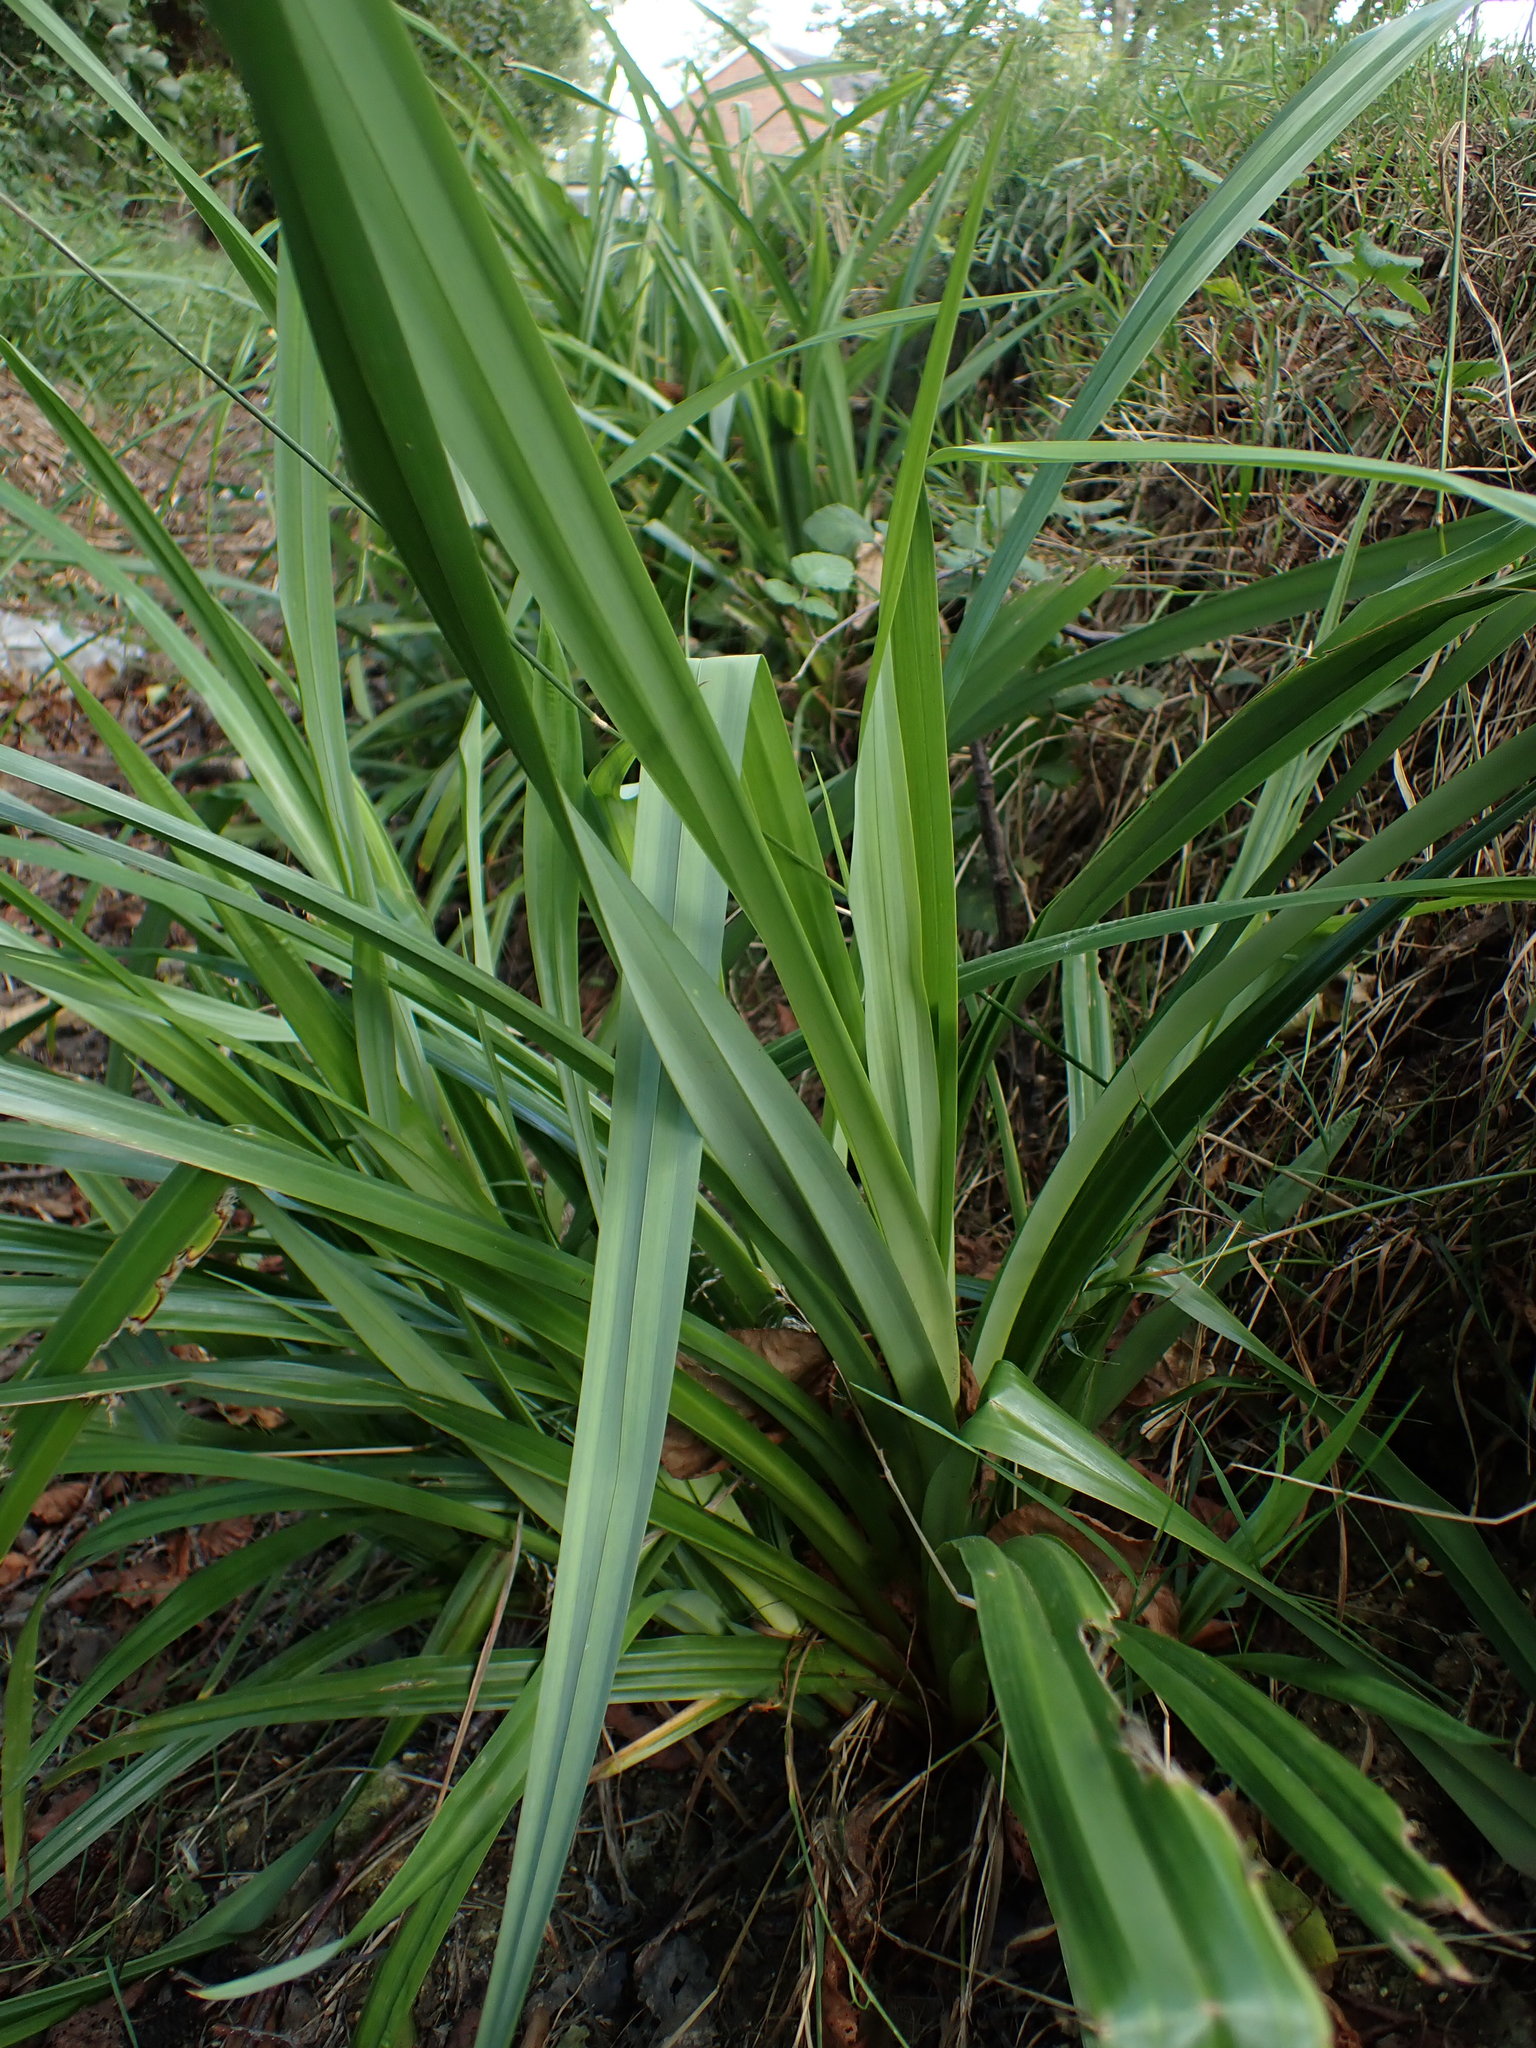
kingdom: Plantae
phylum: Tracheophyta
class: Liliopsida
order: Poales
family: Cyperaceae
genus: Carex
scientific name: Carex pendula
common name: Pendulous sedge
